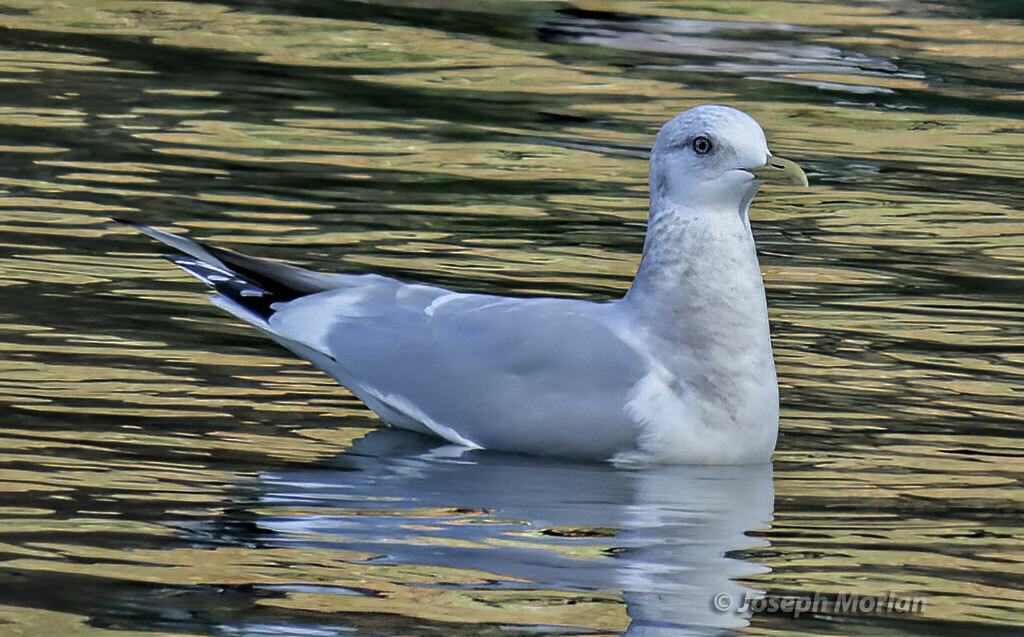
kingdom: Animalia
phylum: Chordata
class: Aves
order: Charadriiformes
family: Laridae
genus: Larus
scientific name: Larus brachyrhynchus
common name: Short-billed gull
